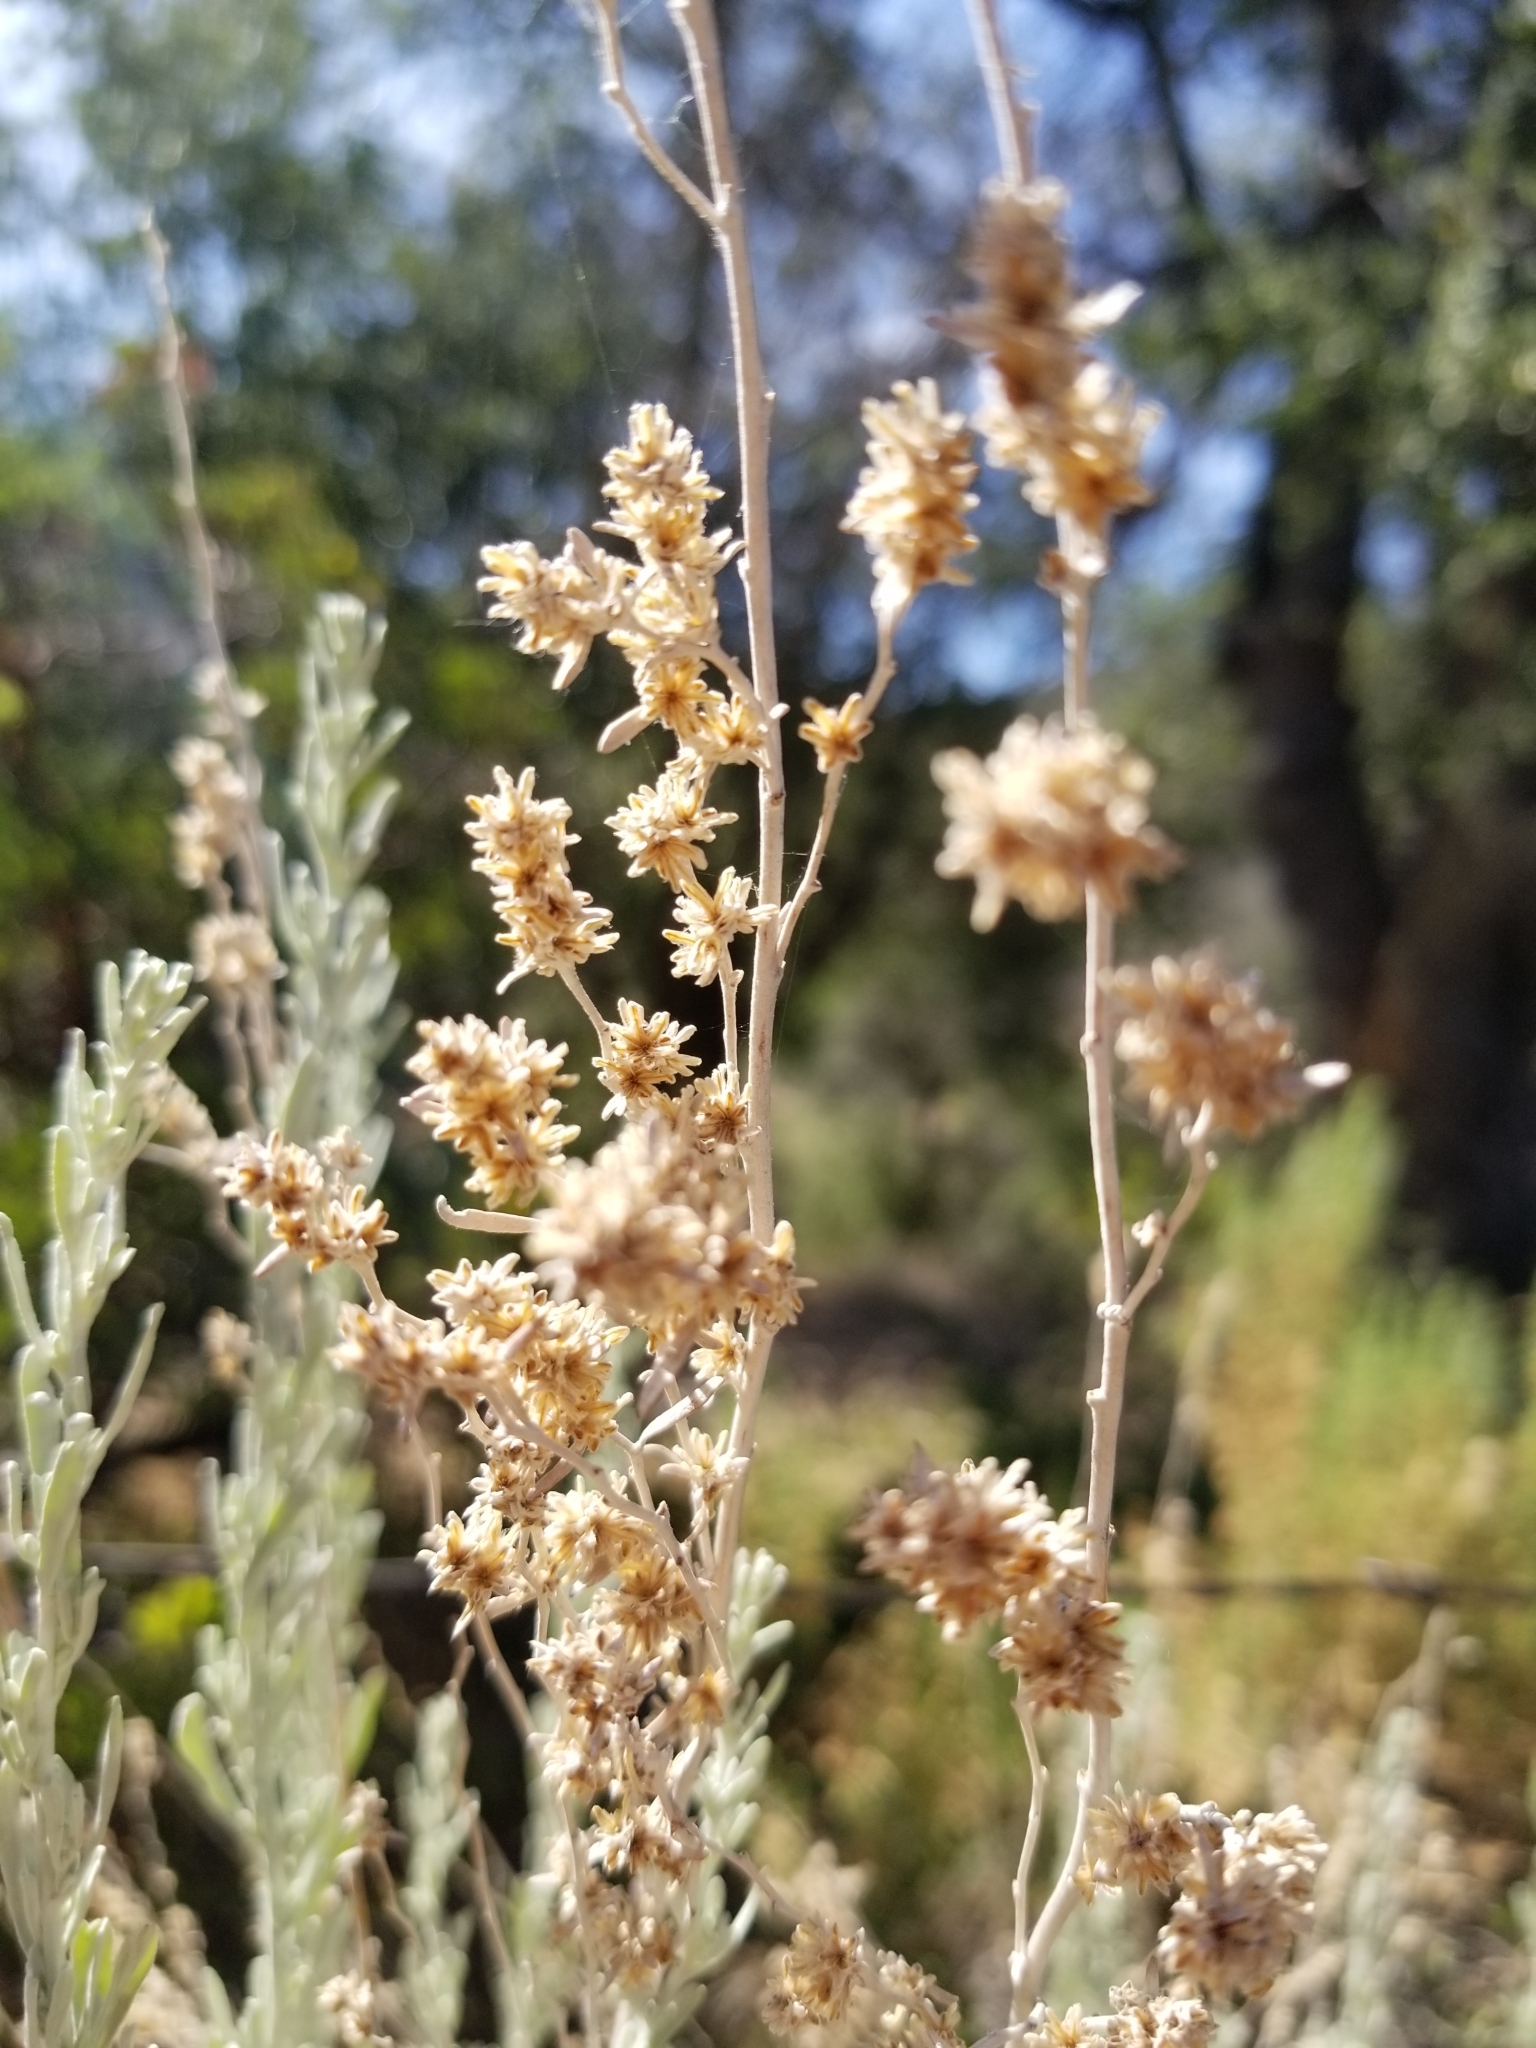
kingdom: Plantae
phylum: Tracheophyta
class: Magnoliopsida
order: Asterales
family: Asteraceae
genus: Artemisia
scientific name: Artemisia tridentata
